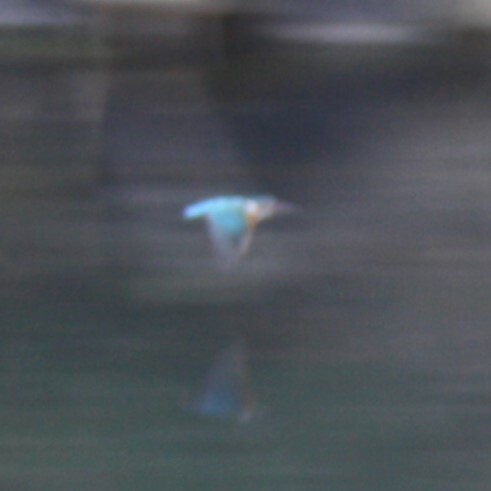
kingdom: Animalia
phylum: Chordata
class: Aves
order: Coraciiformes
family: Alcedinidae
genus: Alcedo
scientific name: Alcedo atthis
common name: Common kingfisher
